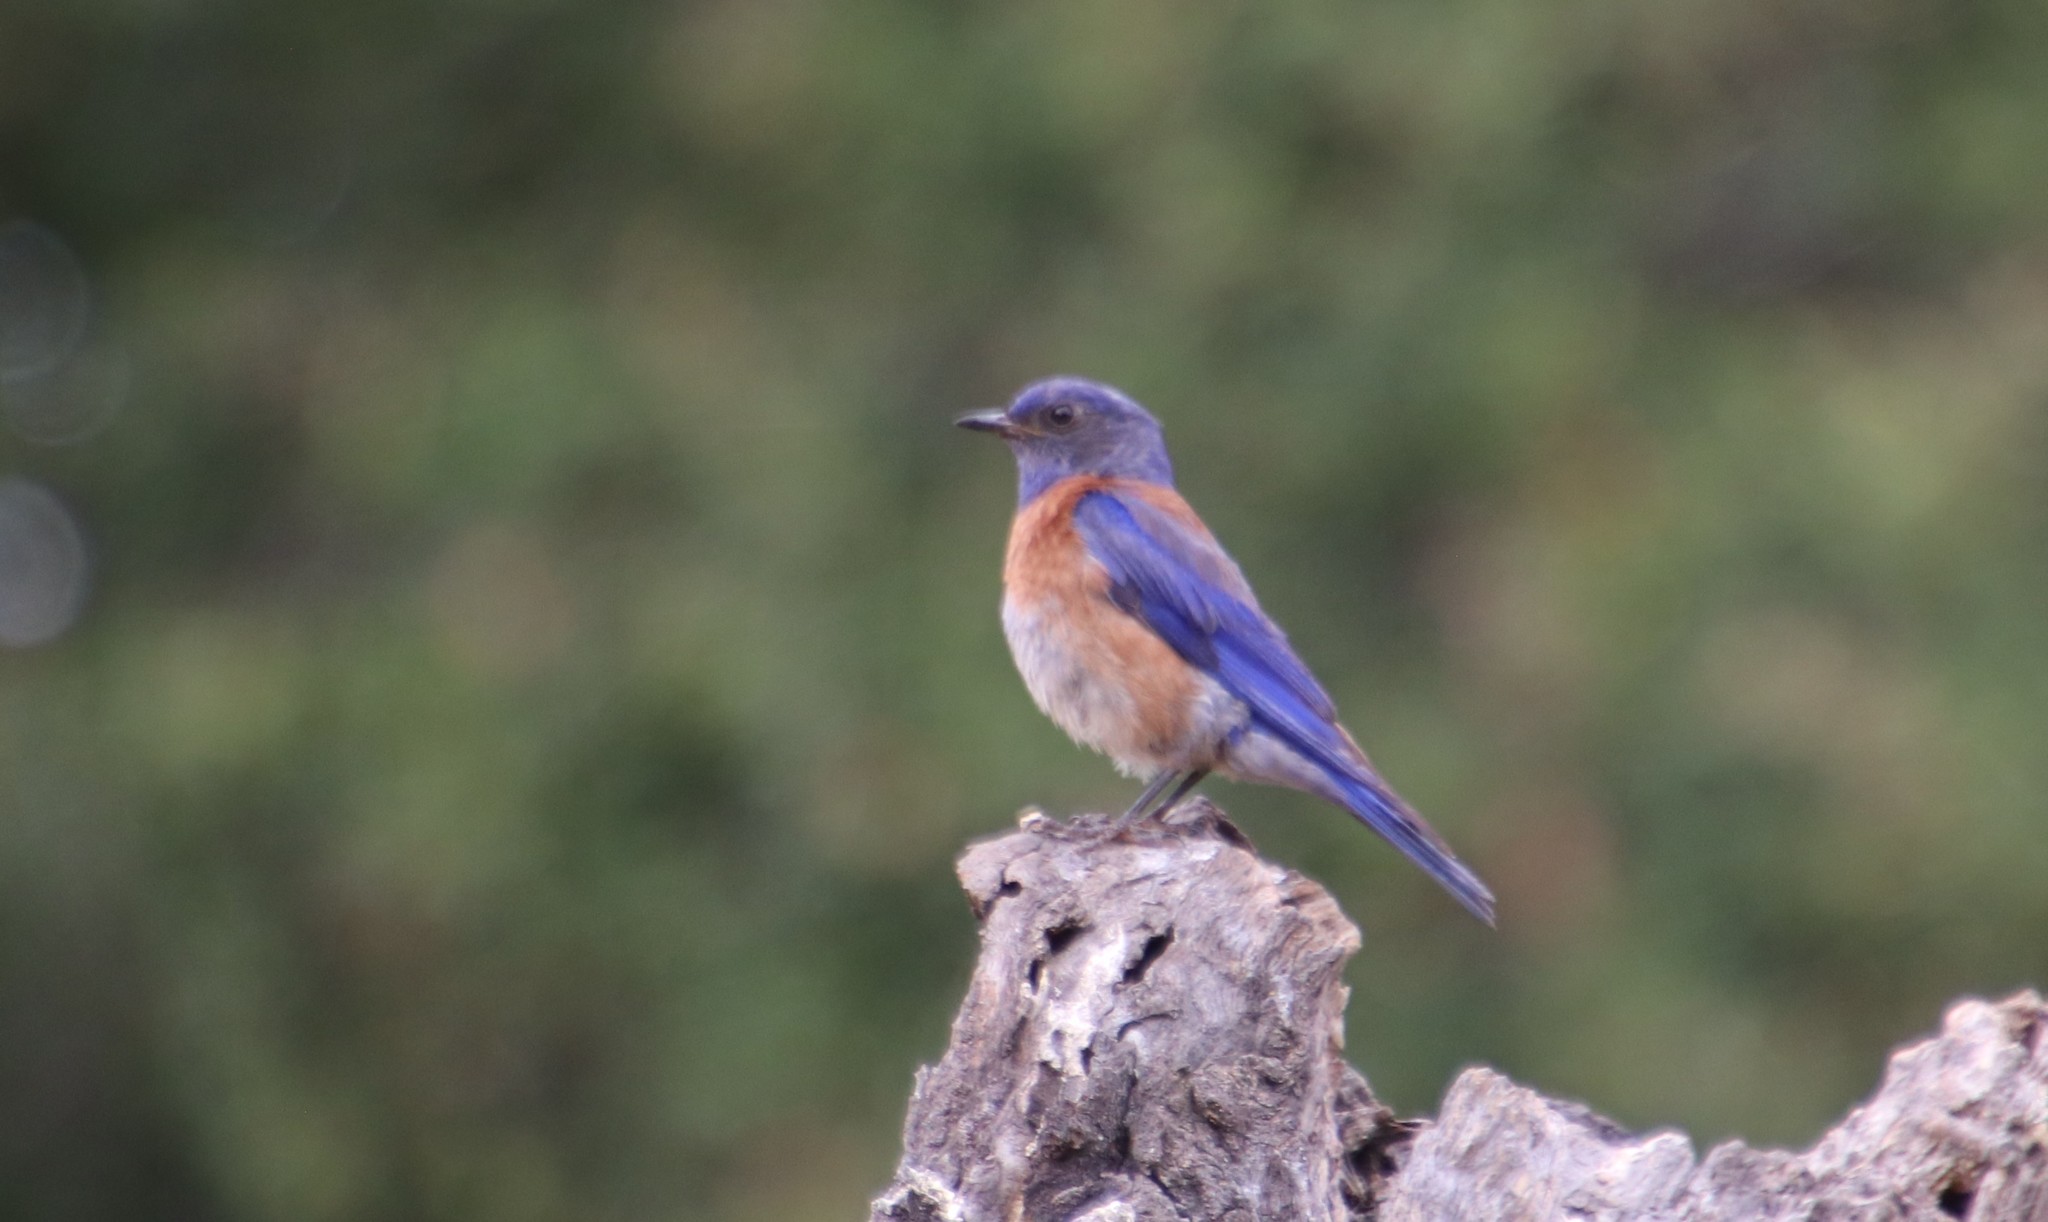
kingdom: Animalia
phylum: Chordata
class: Aves
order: Passeriformes
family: Turdidae
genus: Sialia
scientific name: Sialia mexicana
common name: Western bluebird
